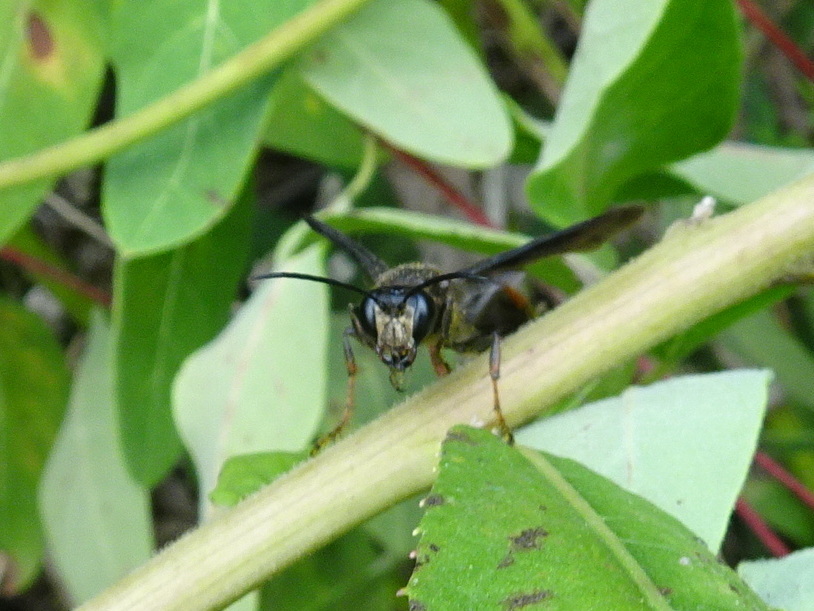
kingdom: Animalia
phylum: Arthropoda
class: Insecta
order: Hymenoptera
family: Sphecidae
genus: Isodontia
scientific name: Isodontia auripes
